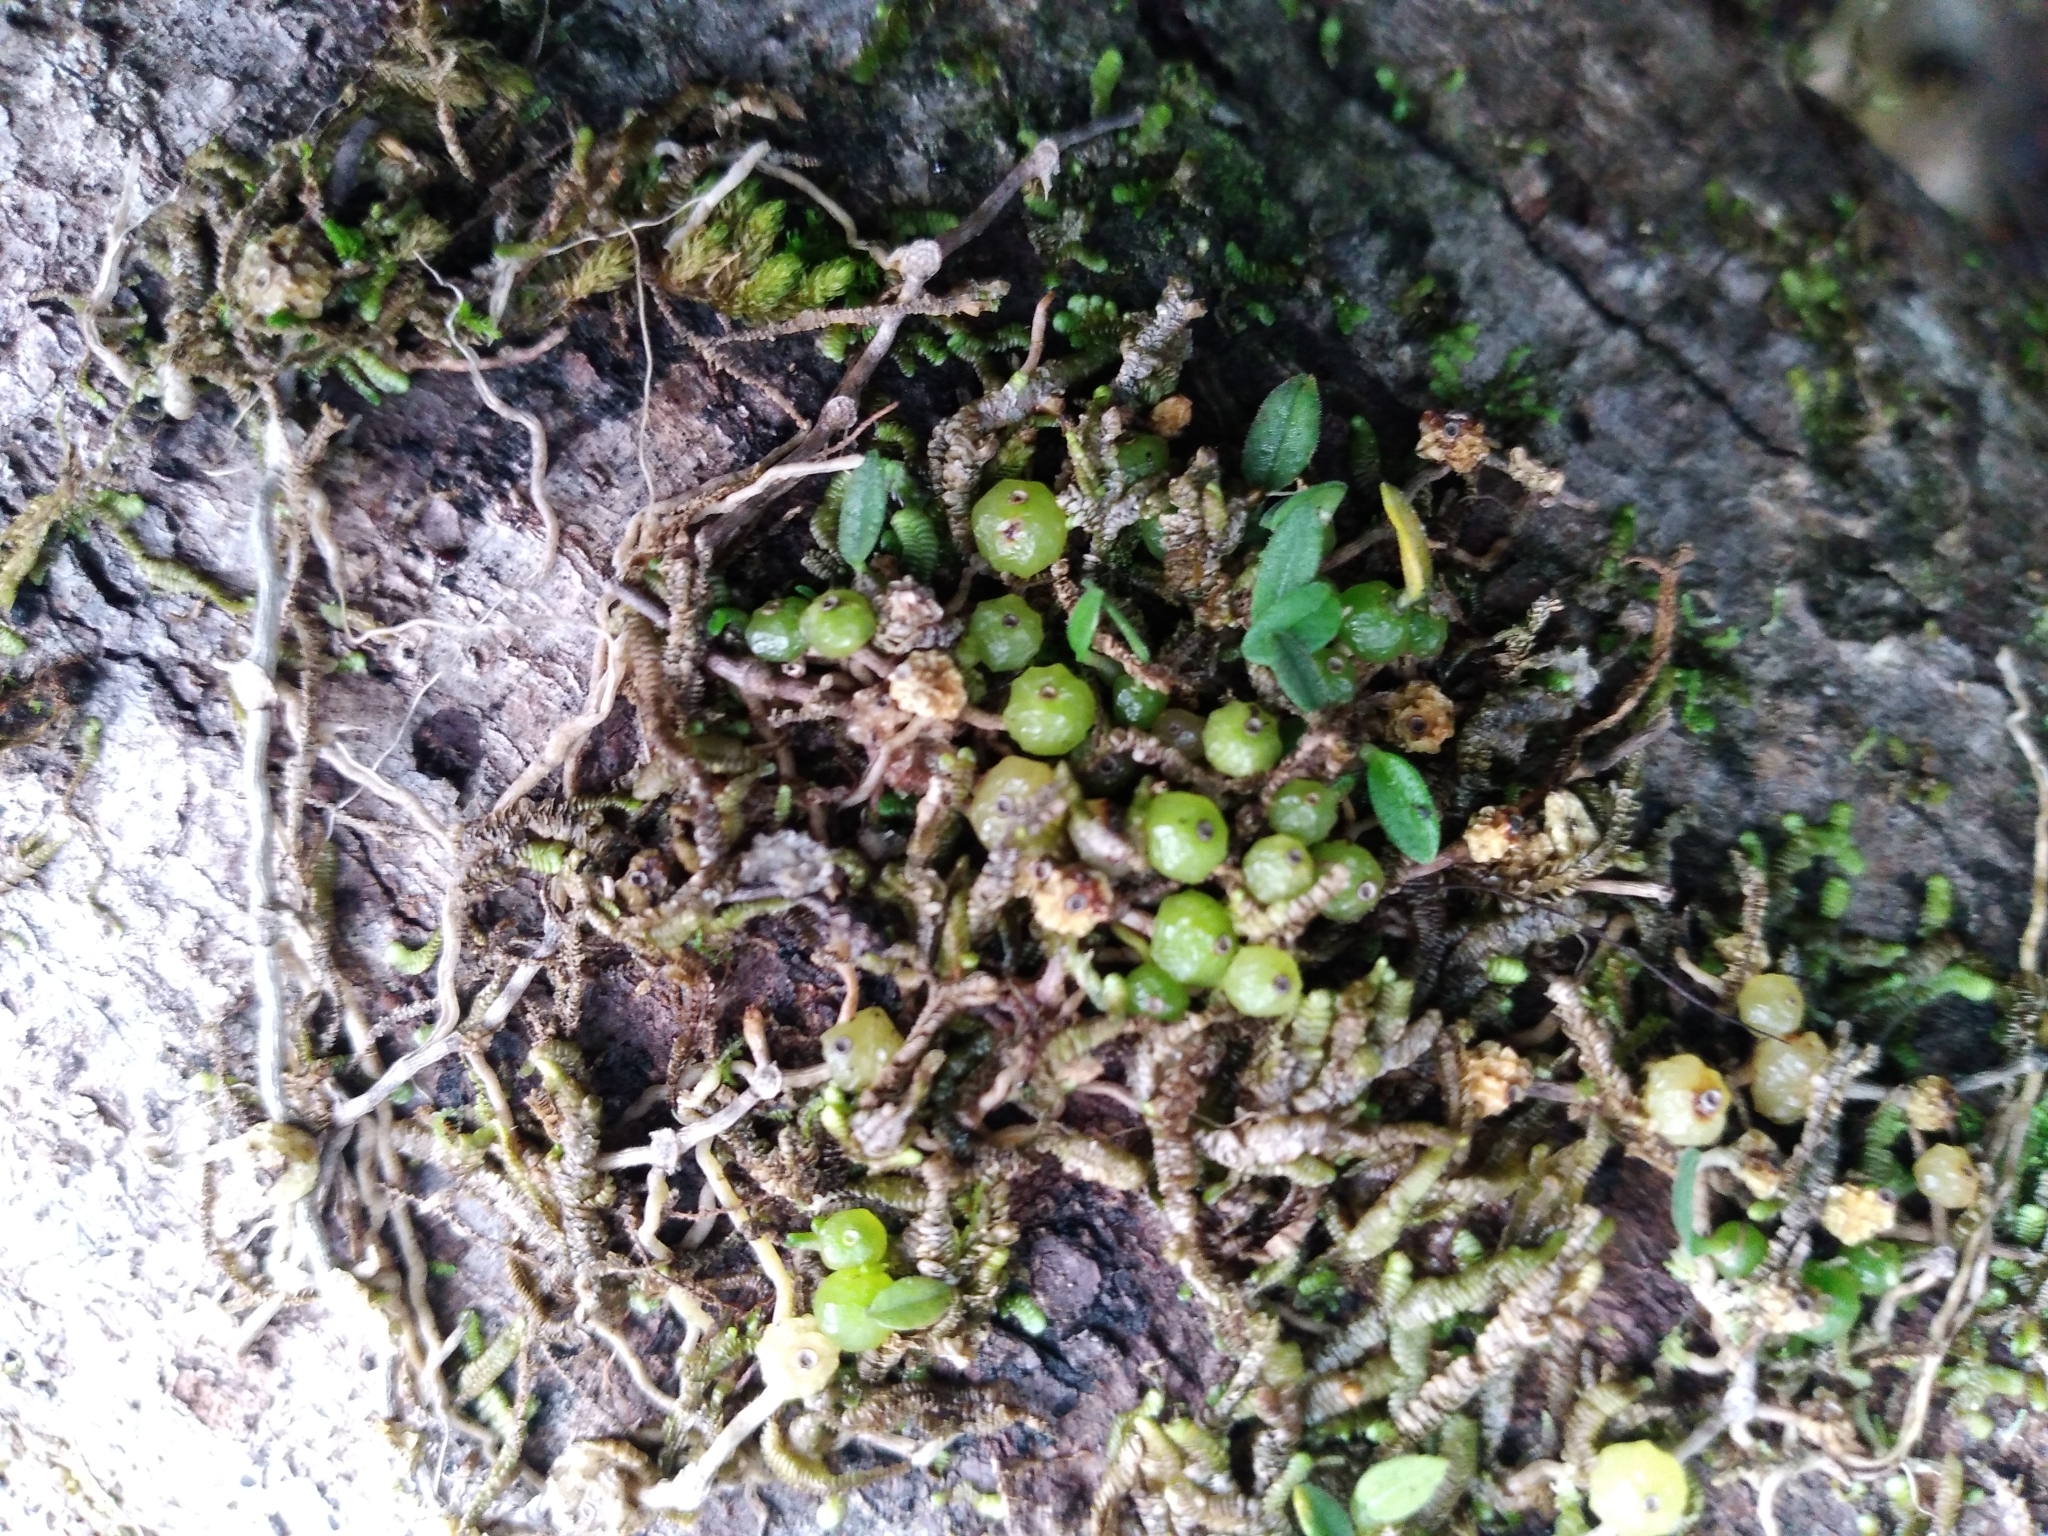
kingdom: Plantae
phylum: Tracheophyta
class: Liliopsida
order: Asparagales
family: Orchidaceae
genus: Bulbophyllum
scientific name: Bulbophyllum pygmaeum
